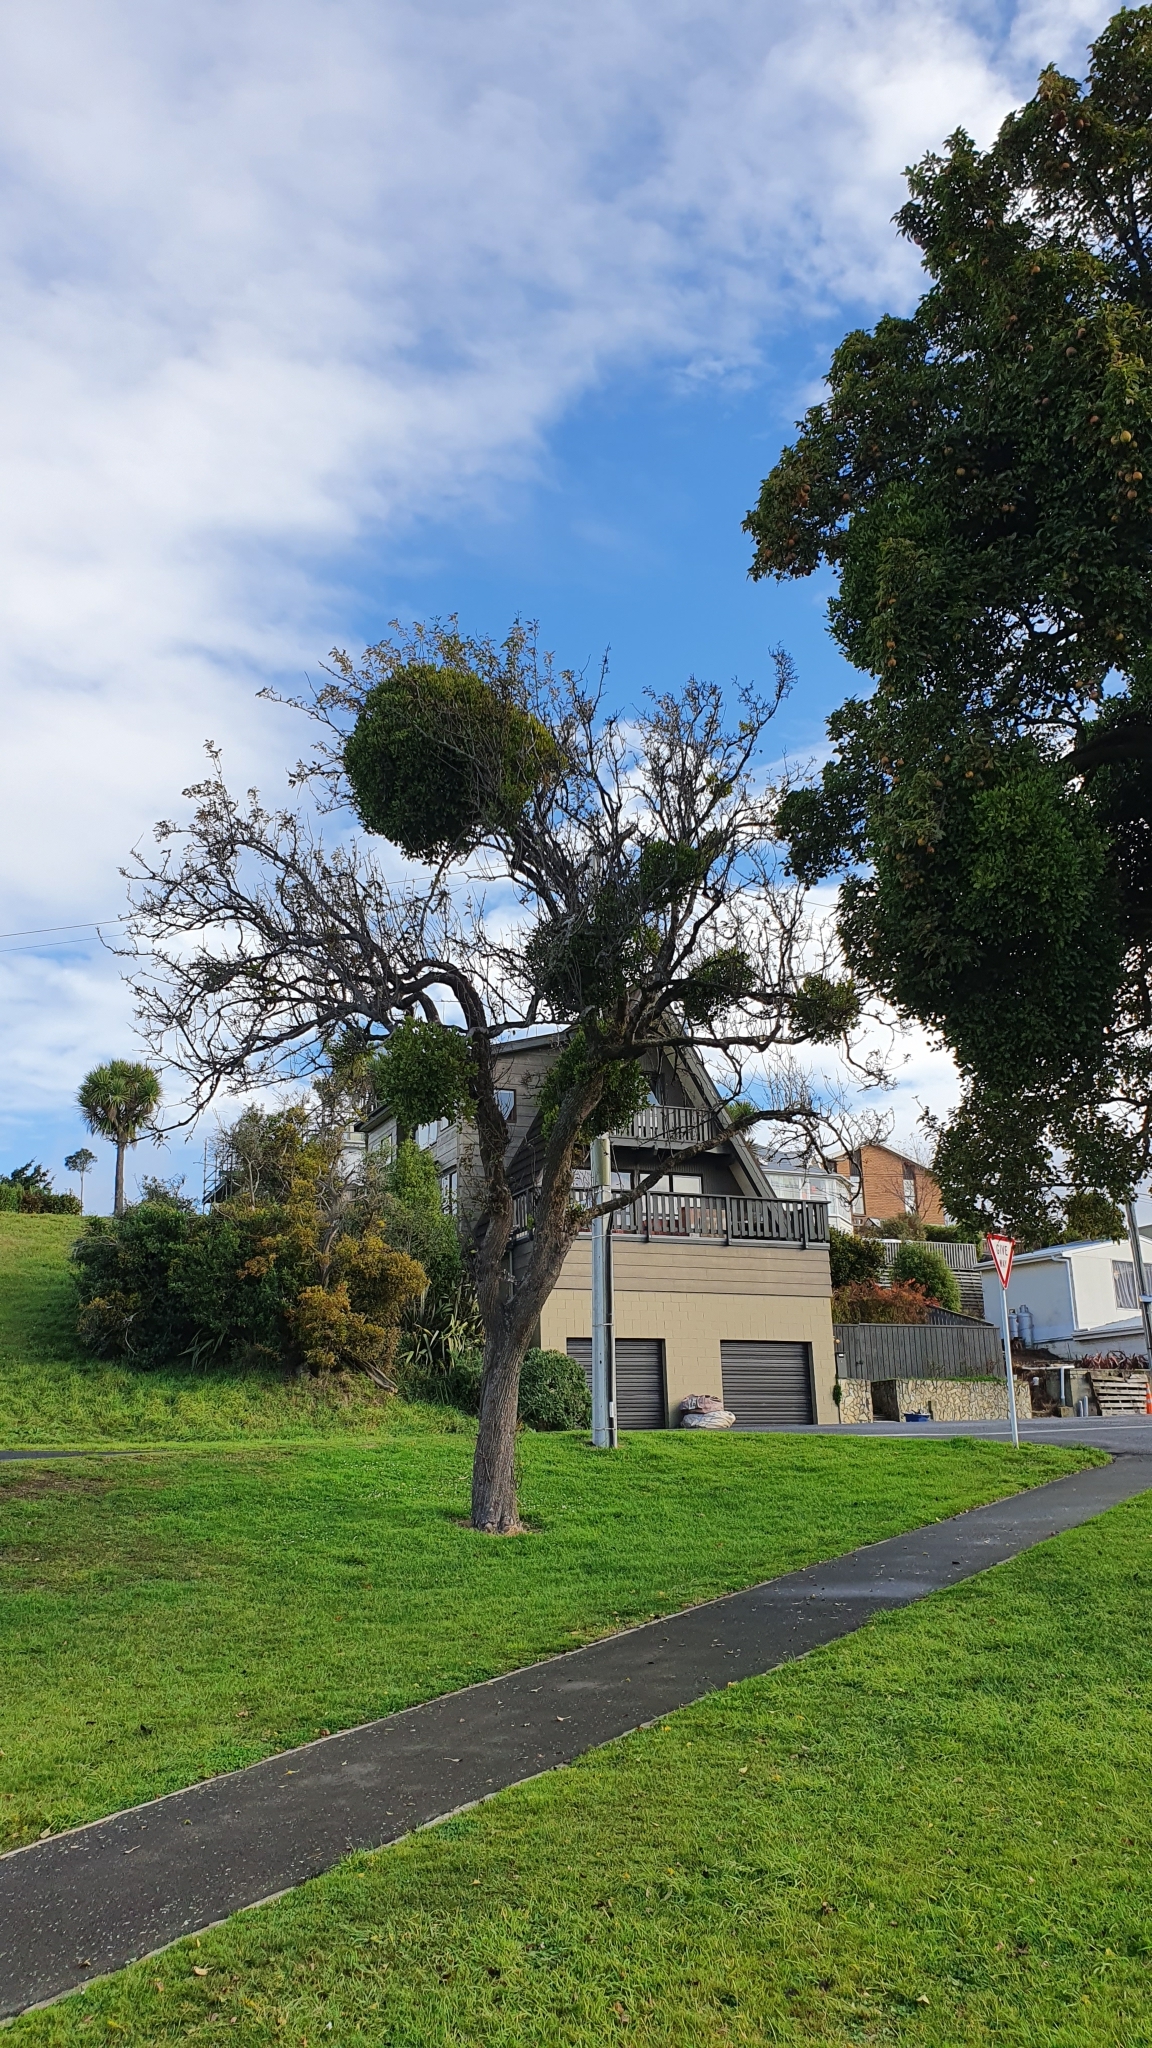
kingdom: Plantae
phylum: Tracheophyta
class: Magnoliopsida
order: Santalales
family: Loranthaceae
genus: Ileostylus
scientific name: Ileostylus micranthus
